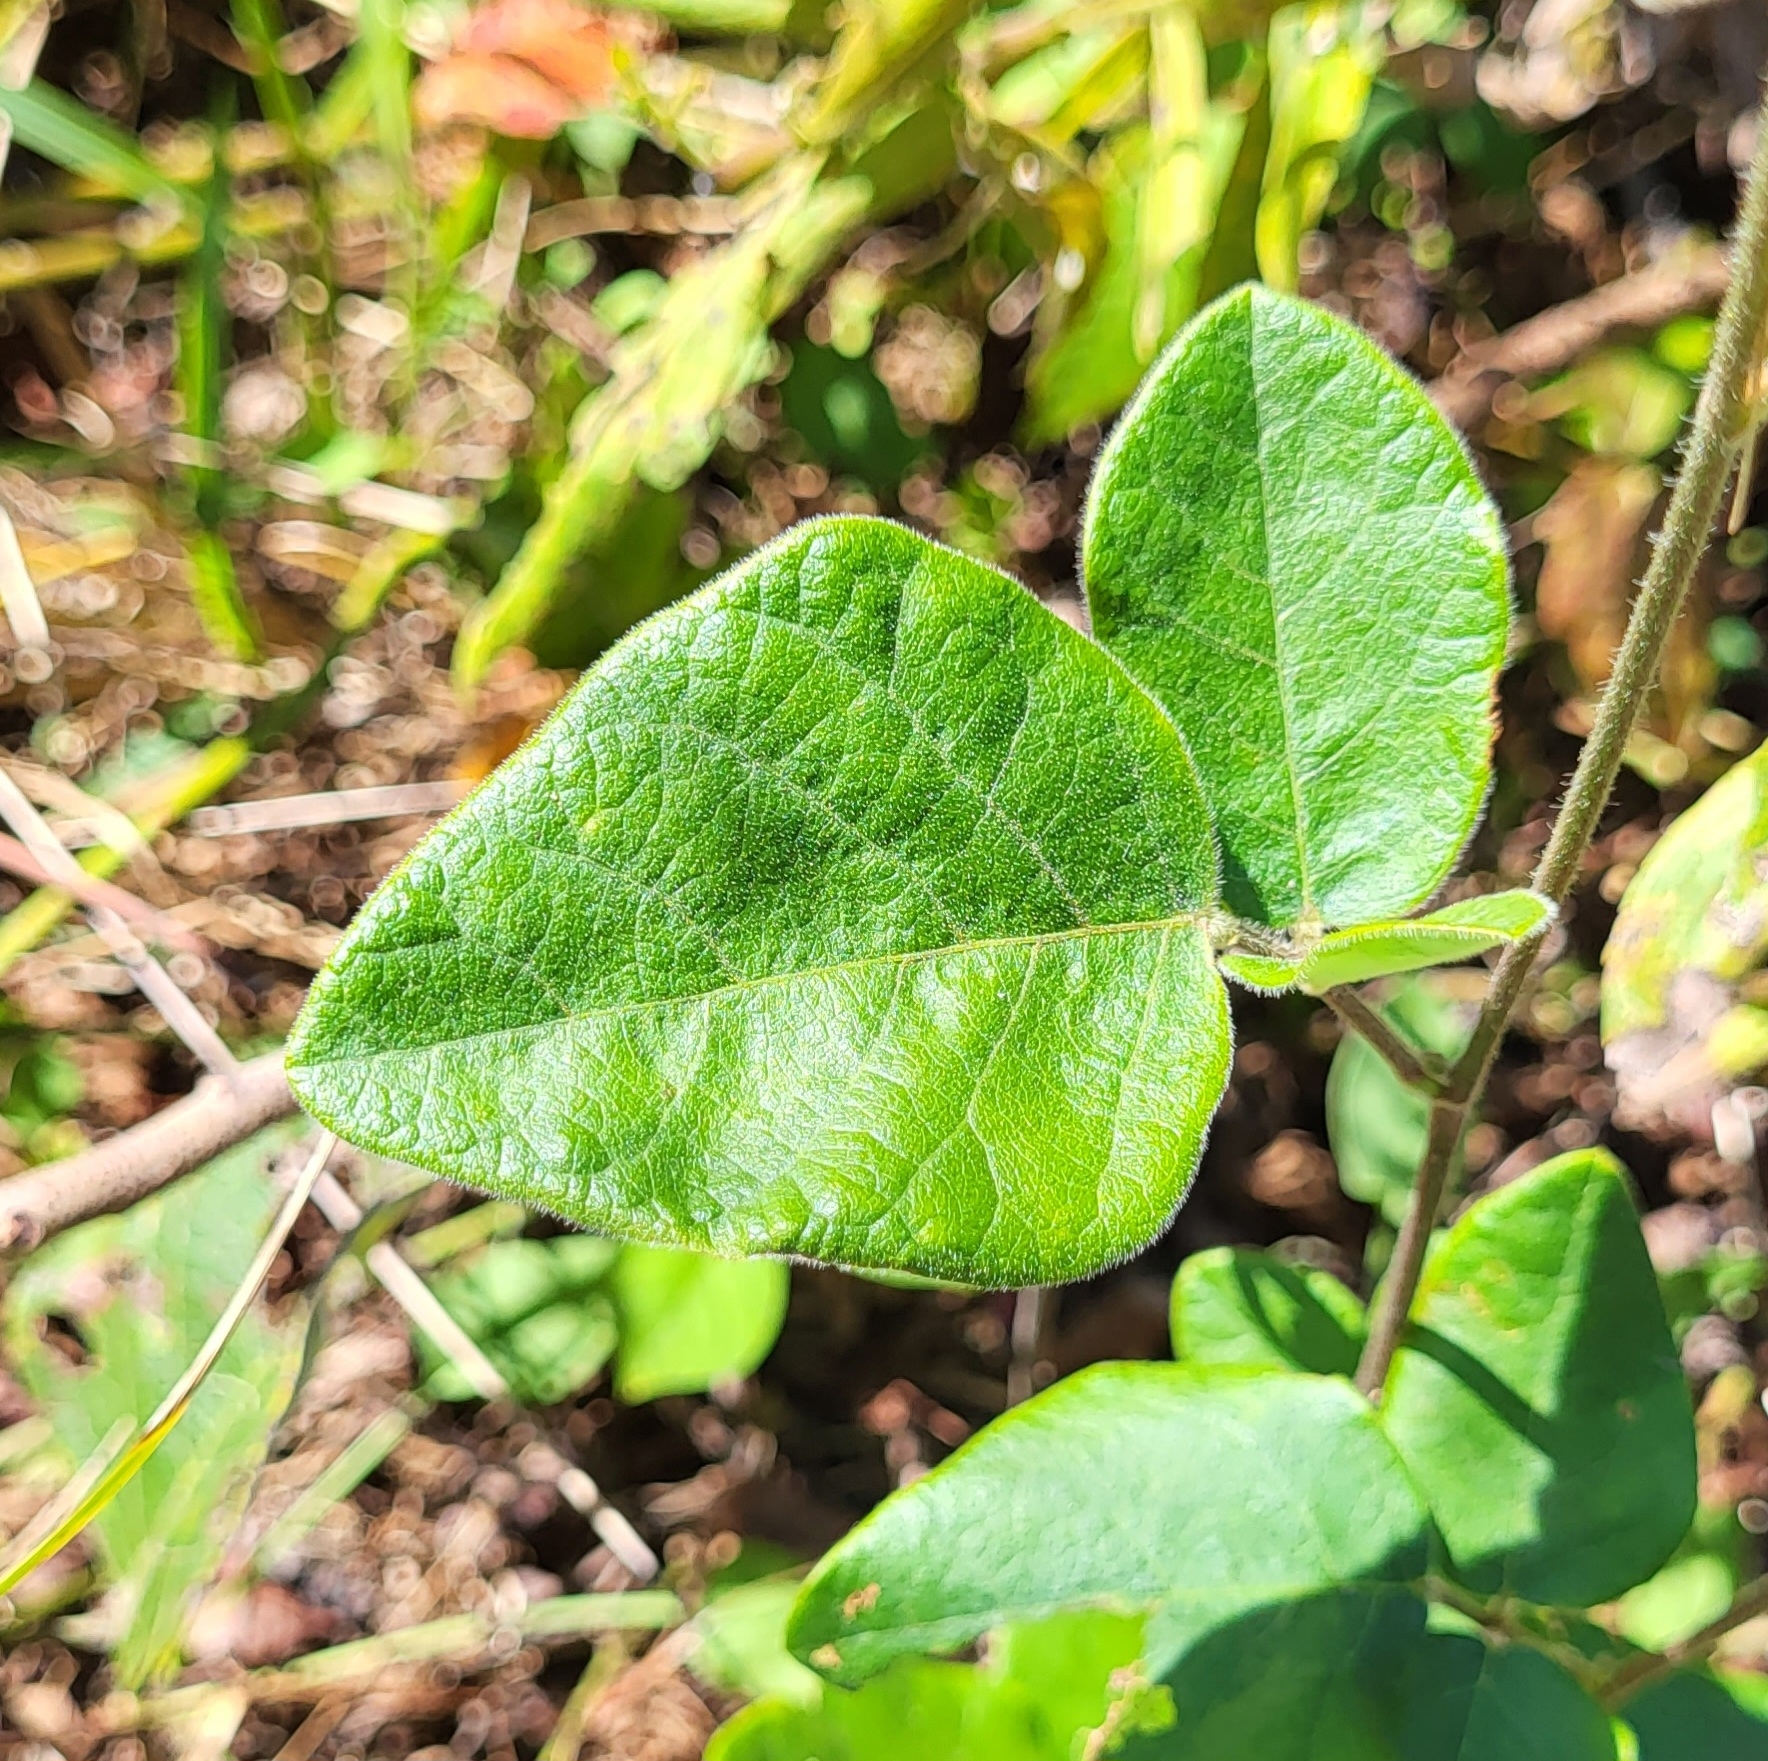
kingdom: Plantae
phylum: Tracheophyta
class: Magnoliopsida
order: Fabales
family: Fabaceae
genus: Desmodium
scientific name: Desmodium viridiflorum
